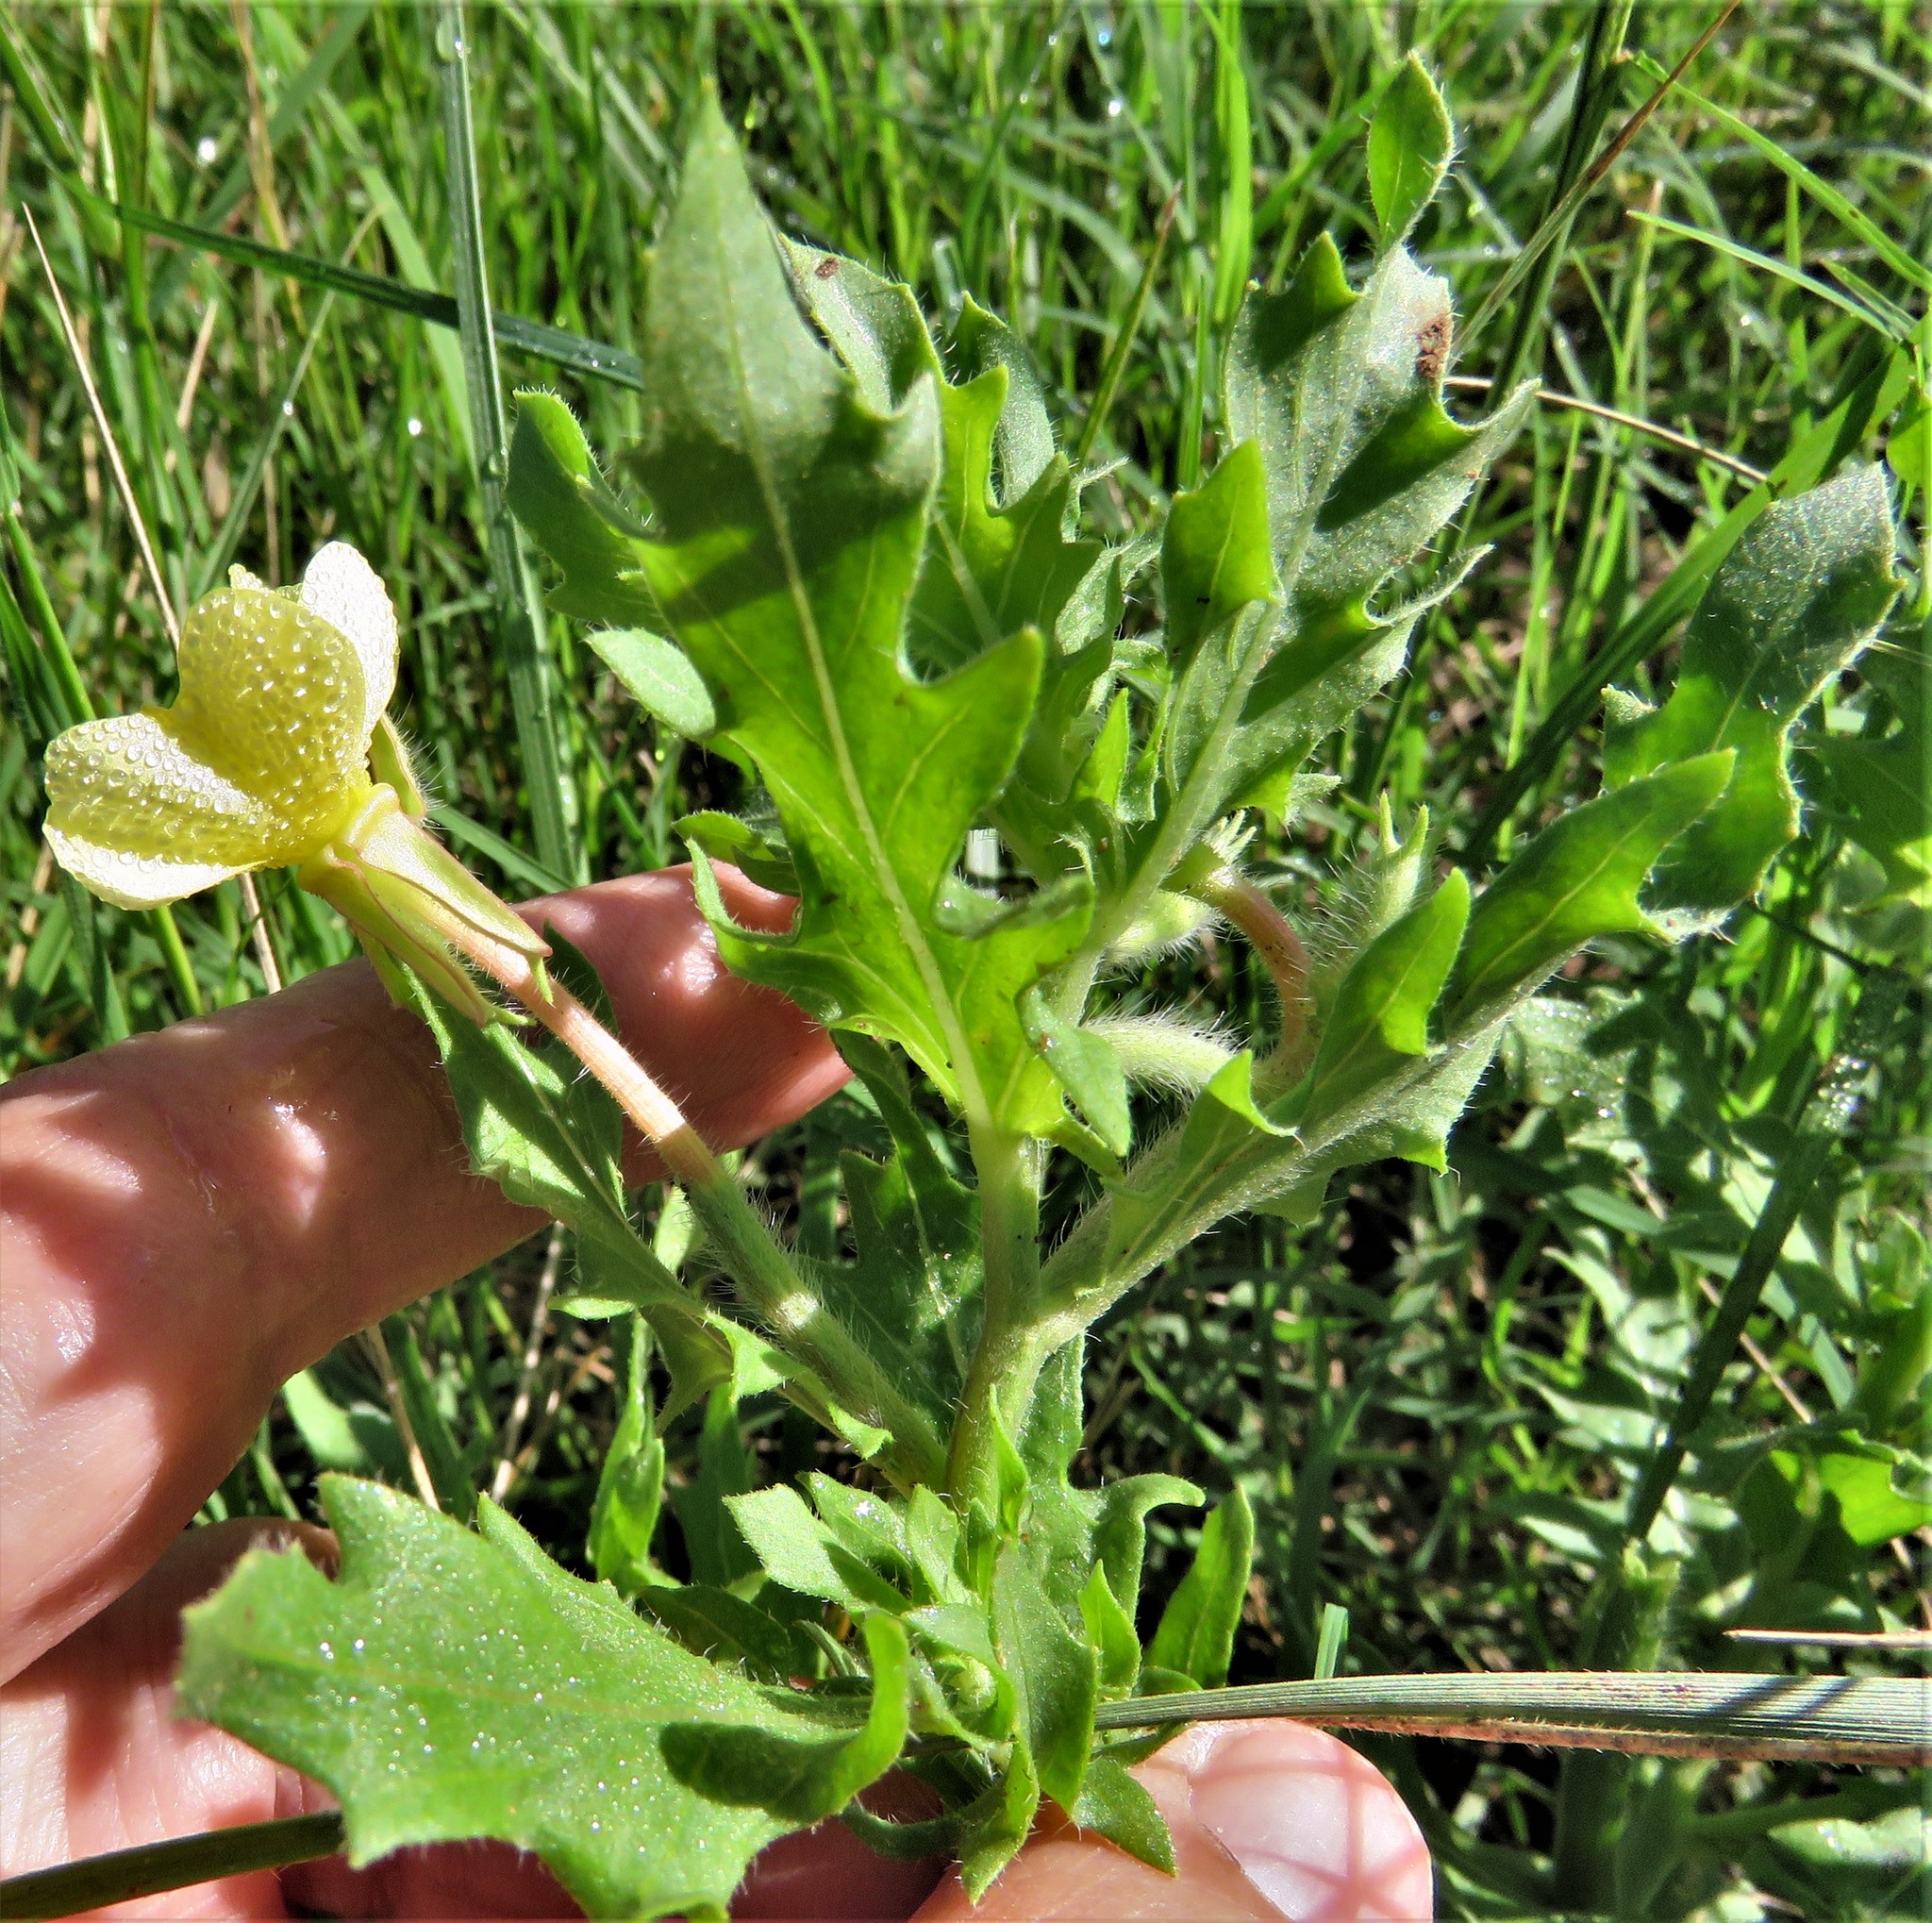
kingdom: Plantae
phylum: Tracheophyta
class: Magnoliopsida
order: Myrtales
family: Onagraceae
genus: Oenothera
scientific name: Oenothera laciniata
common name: Cut-leaved evening-primrose
